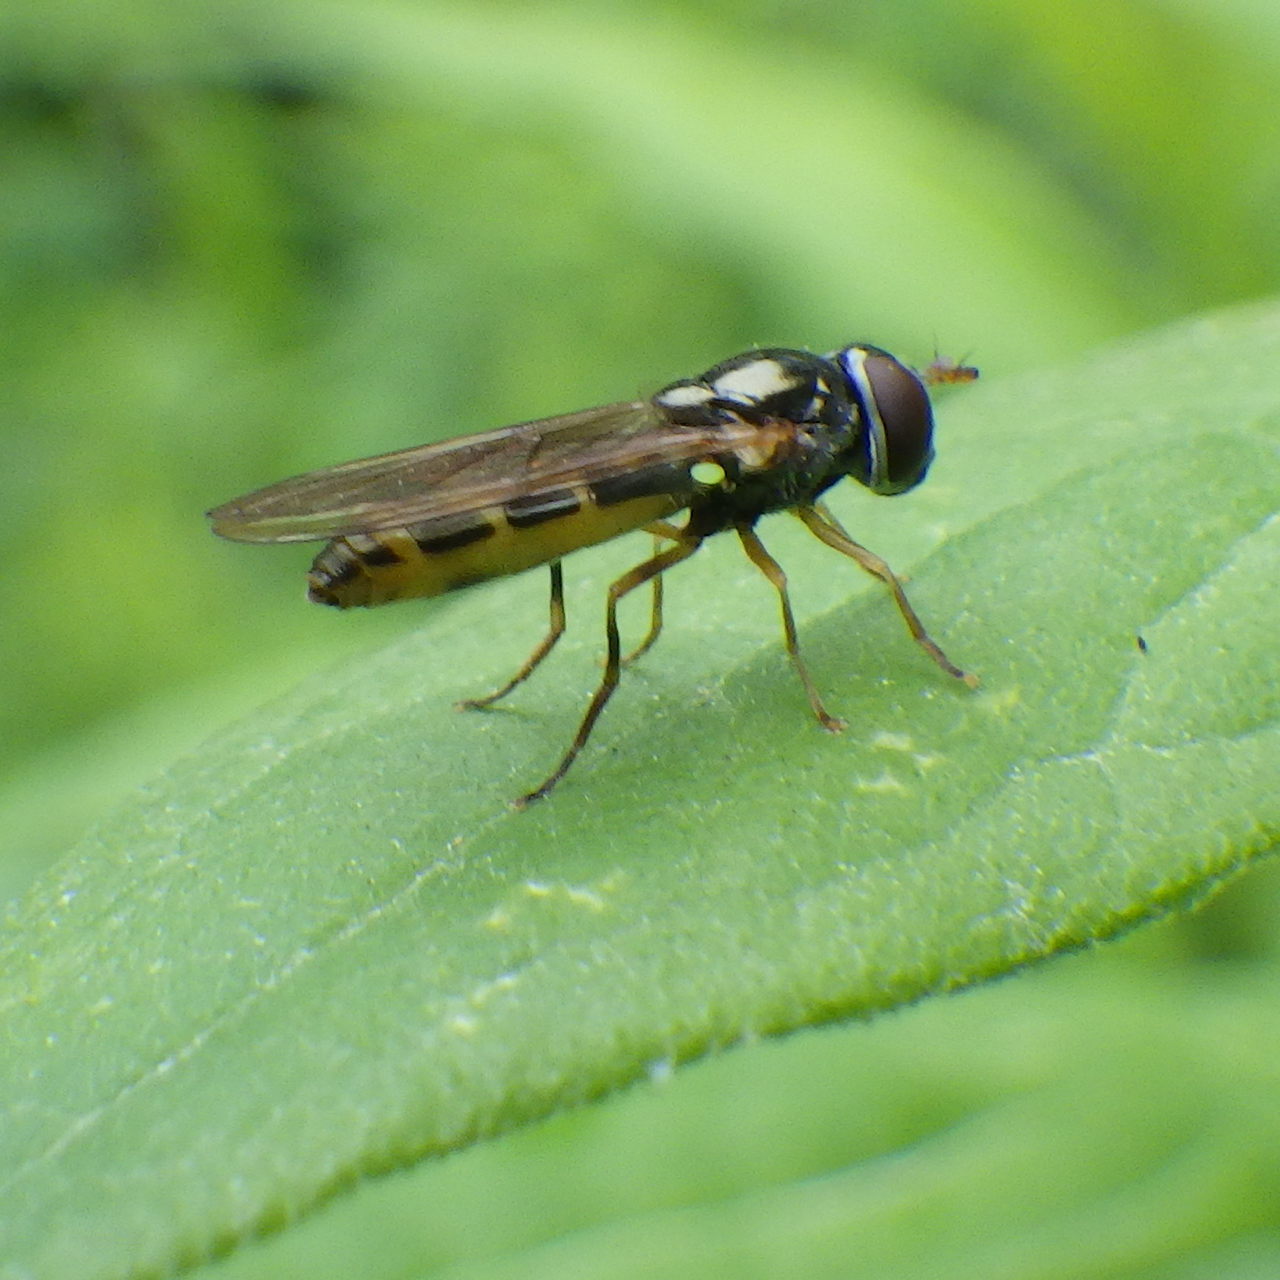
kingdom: Animalia
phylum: Arthropoda
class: Insecta
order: Diptera
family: Syrphidae
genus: Melanostoma
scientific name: Melanostoma mellina
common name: Hover fly
